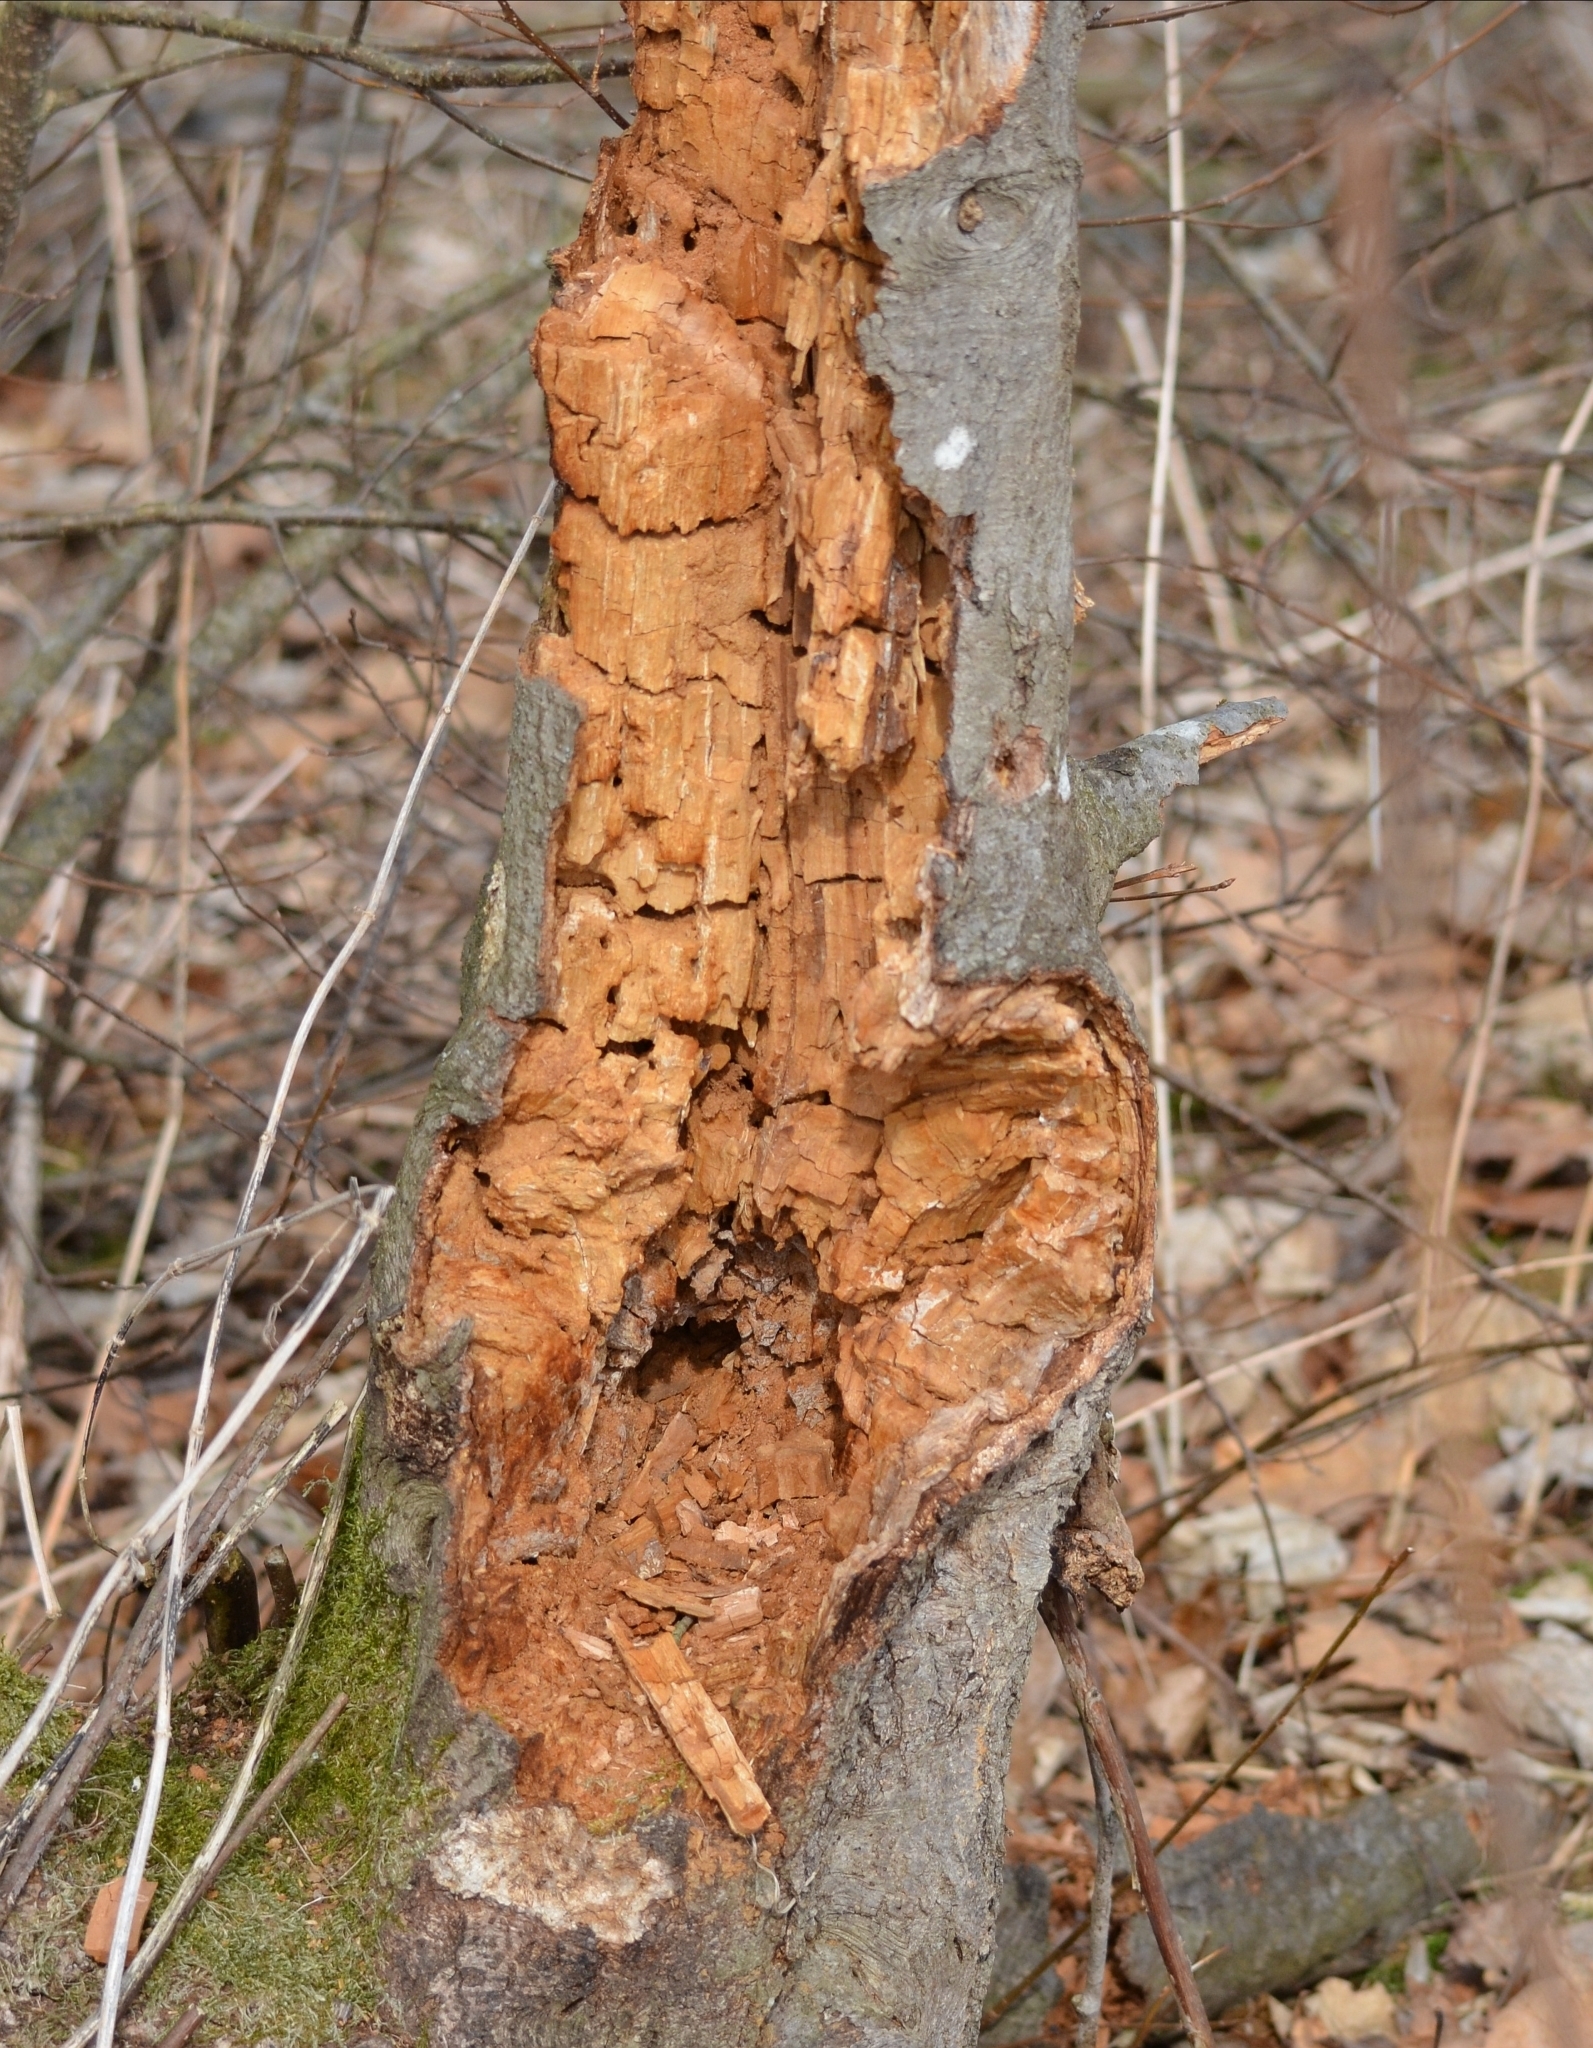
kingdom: Animalia
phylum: Arthropoda
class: Arachnida
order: Araneae
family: Linyphiidae
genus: Neriene
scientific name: Neriene montana
